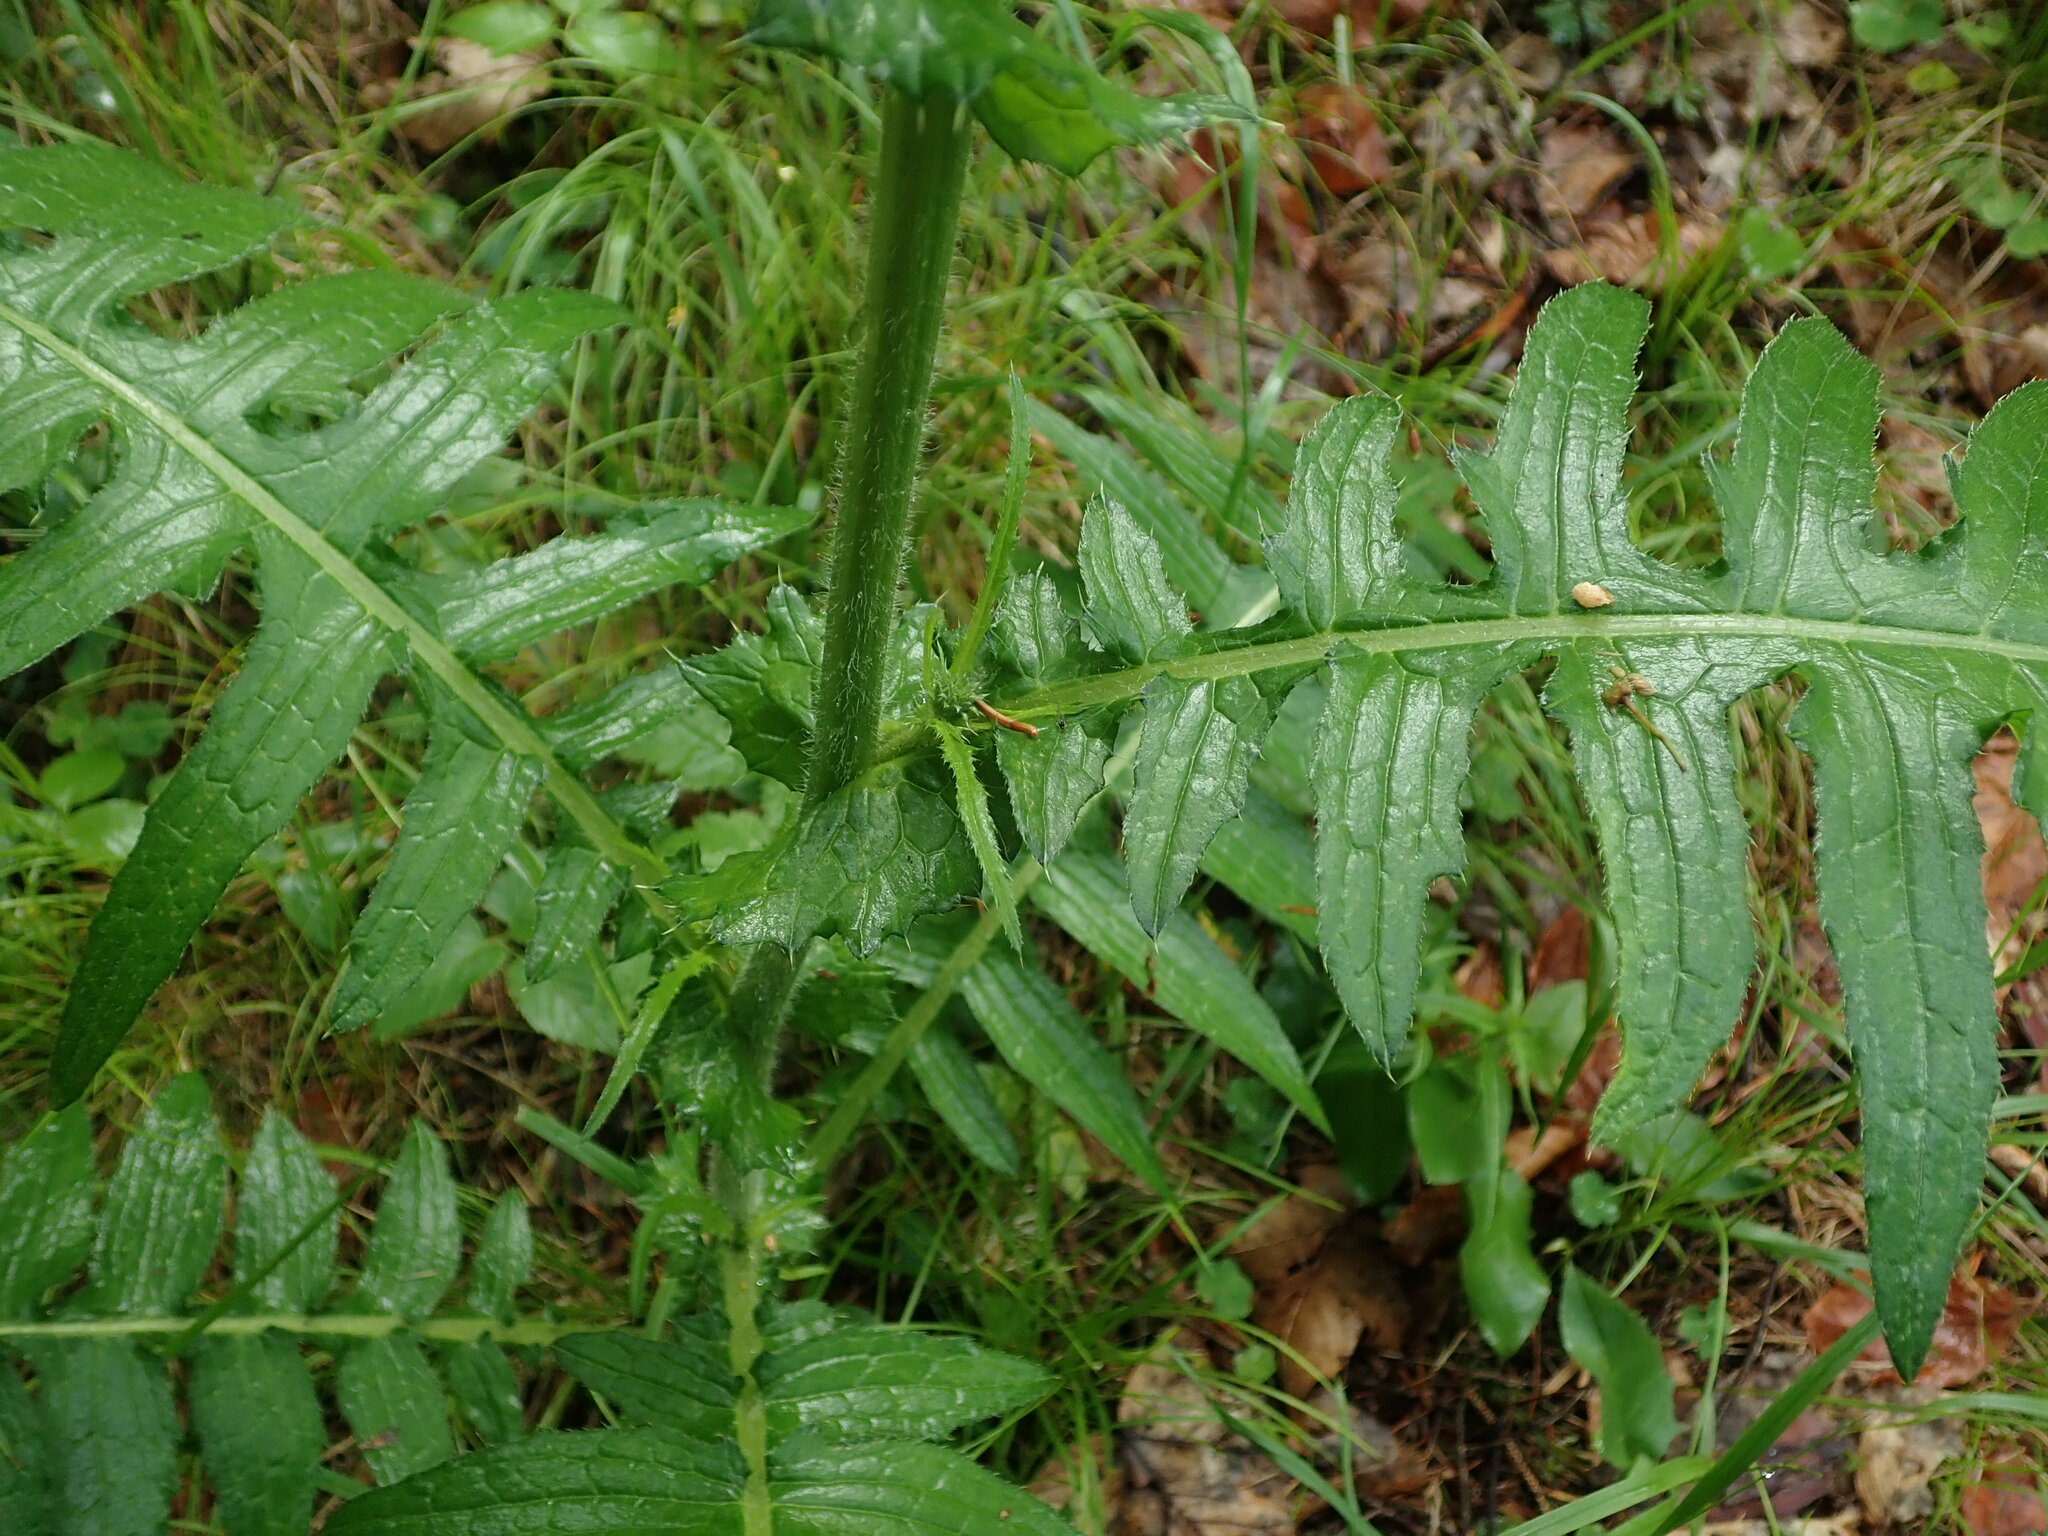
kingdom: Plantae
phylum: Tracheophyta
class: Magnoliopsida
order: Asterales
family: Asteraceae
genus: Cirsium
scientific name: Cirsium erisithales
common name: Yellow thistle
